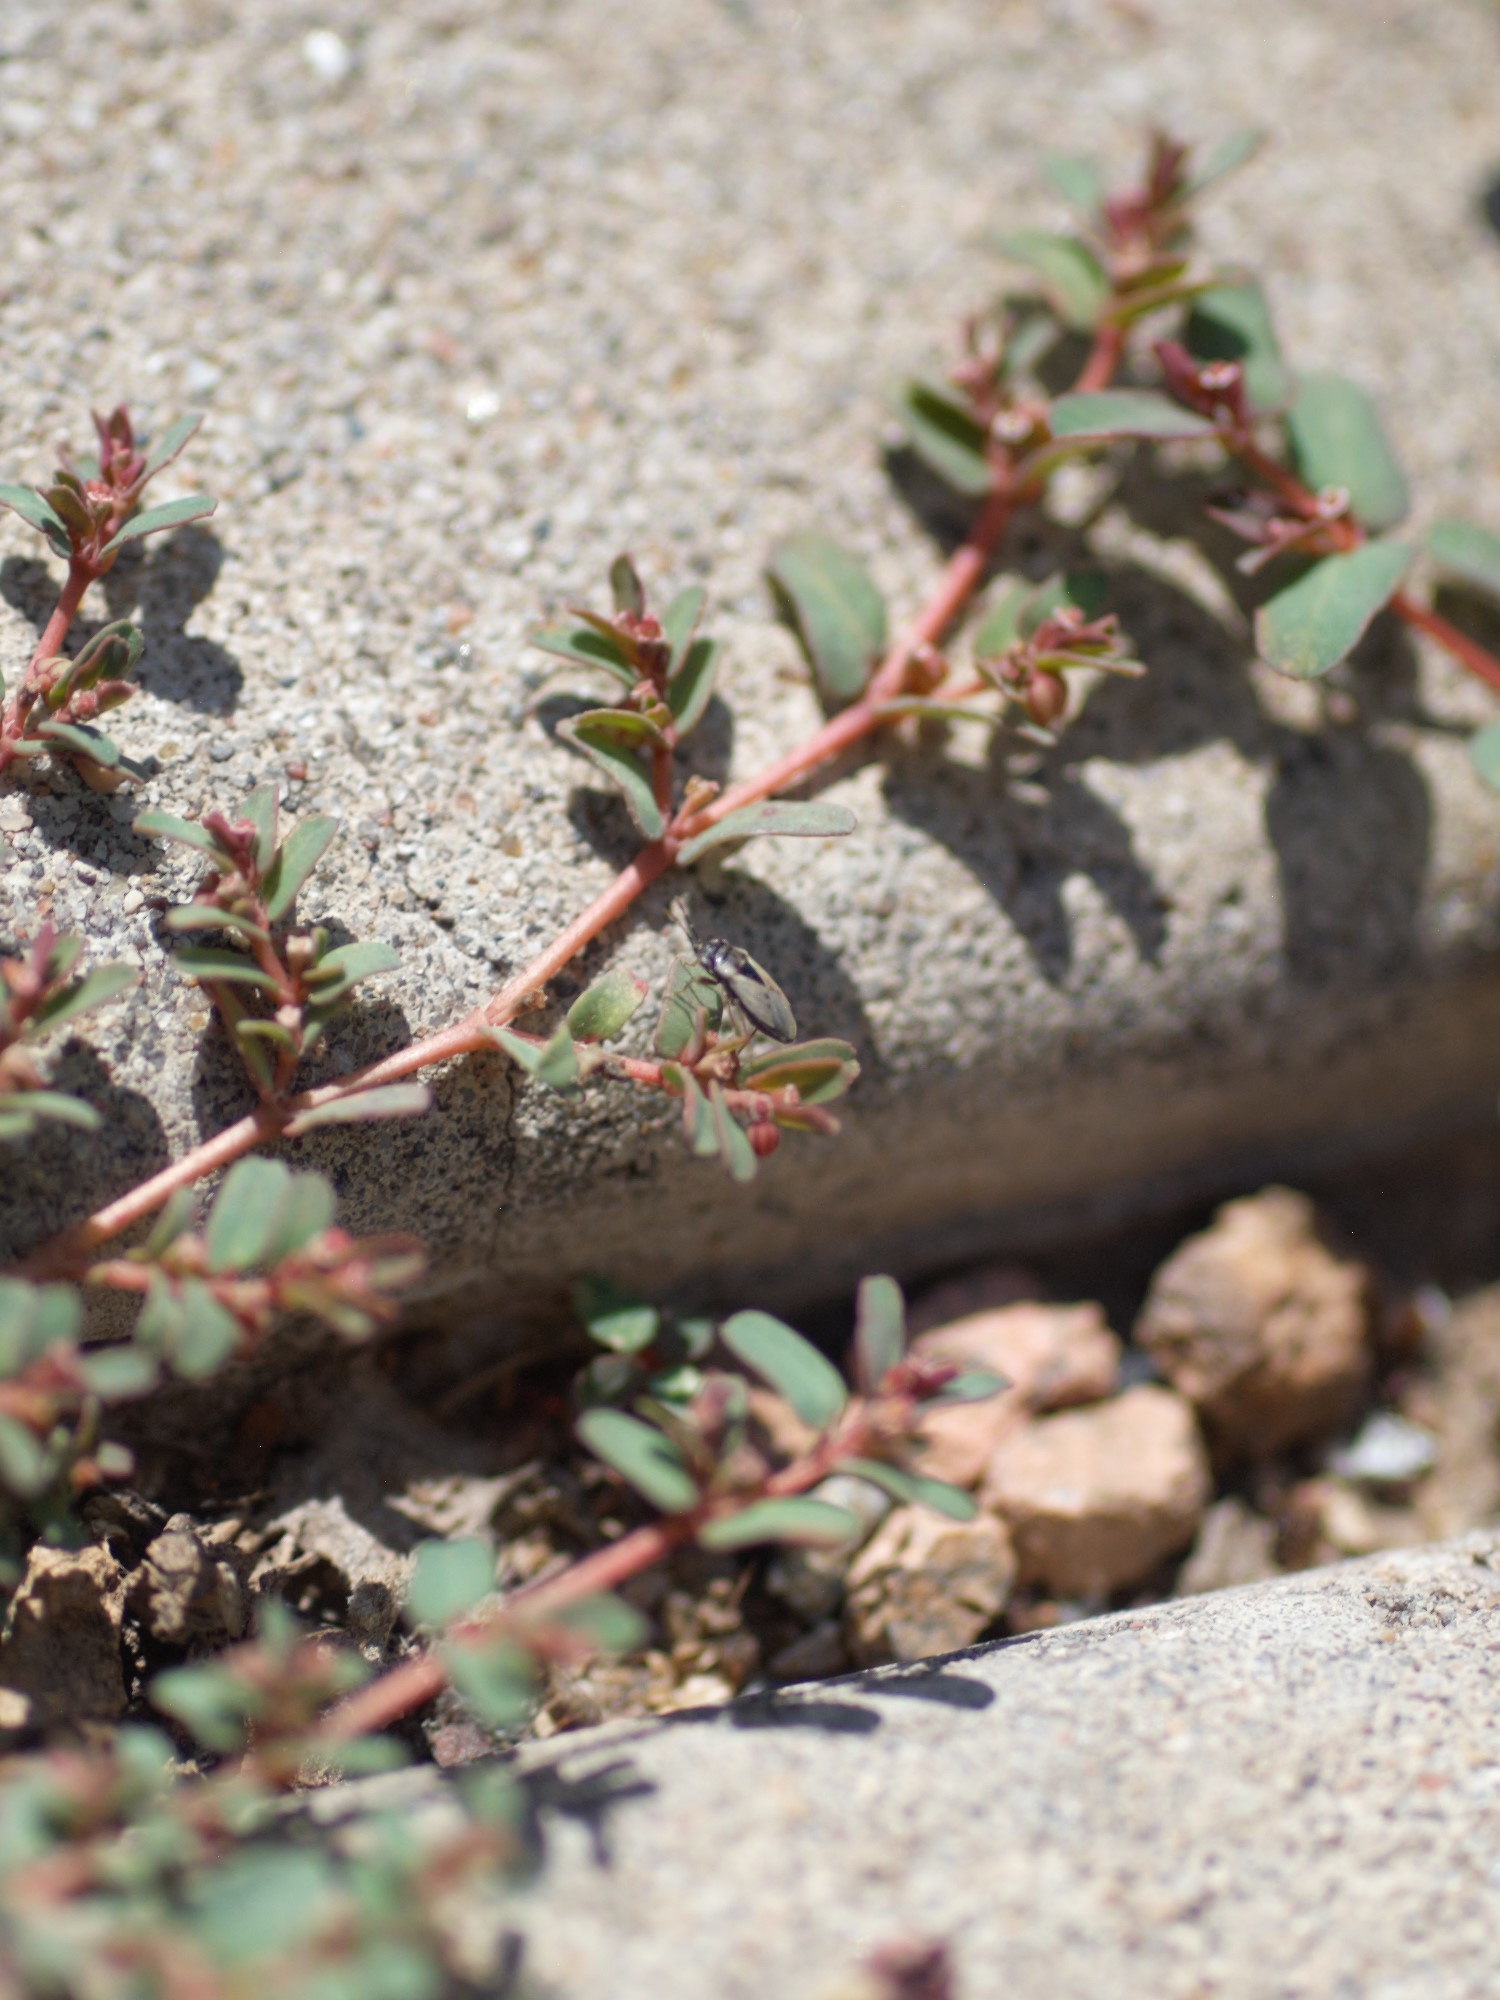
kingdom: Animalia
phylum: Arthropoda
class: Insecta
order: Hemiptera
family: Geocoridae
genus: Geocoris
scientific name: Geocoris
